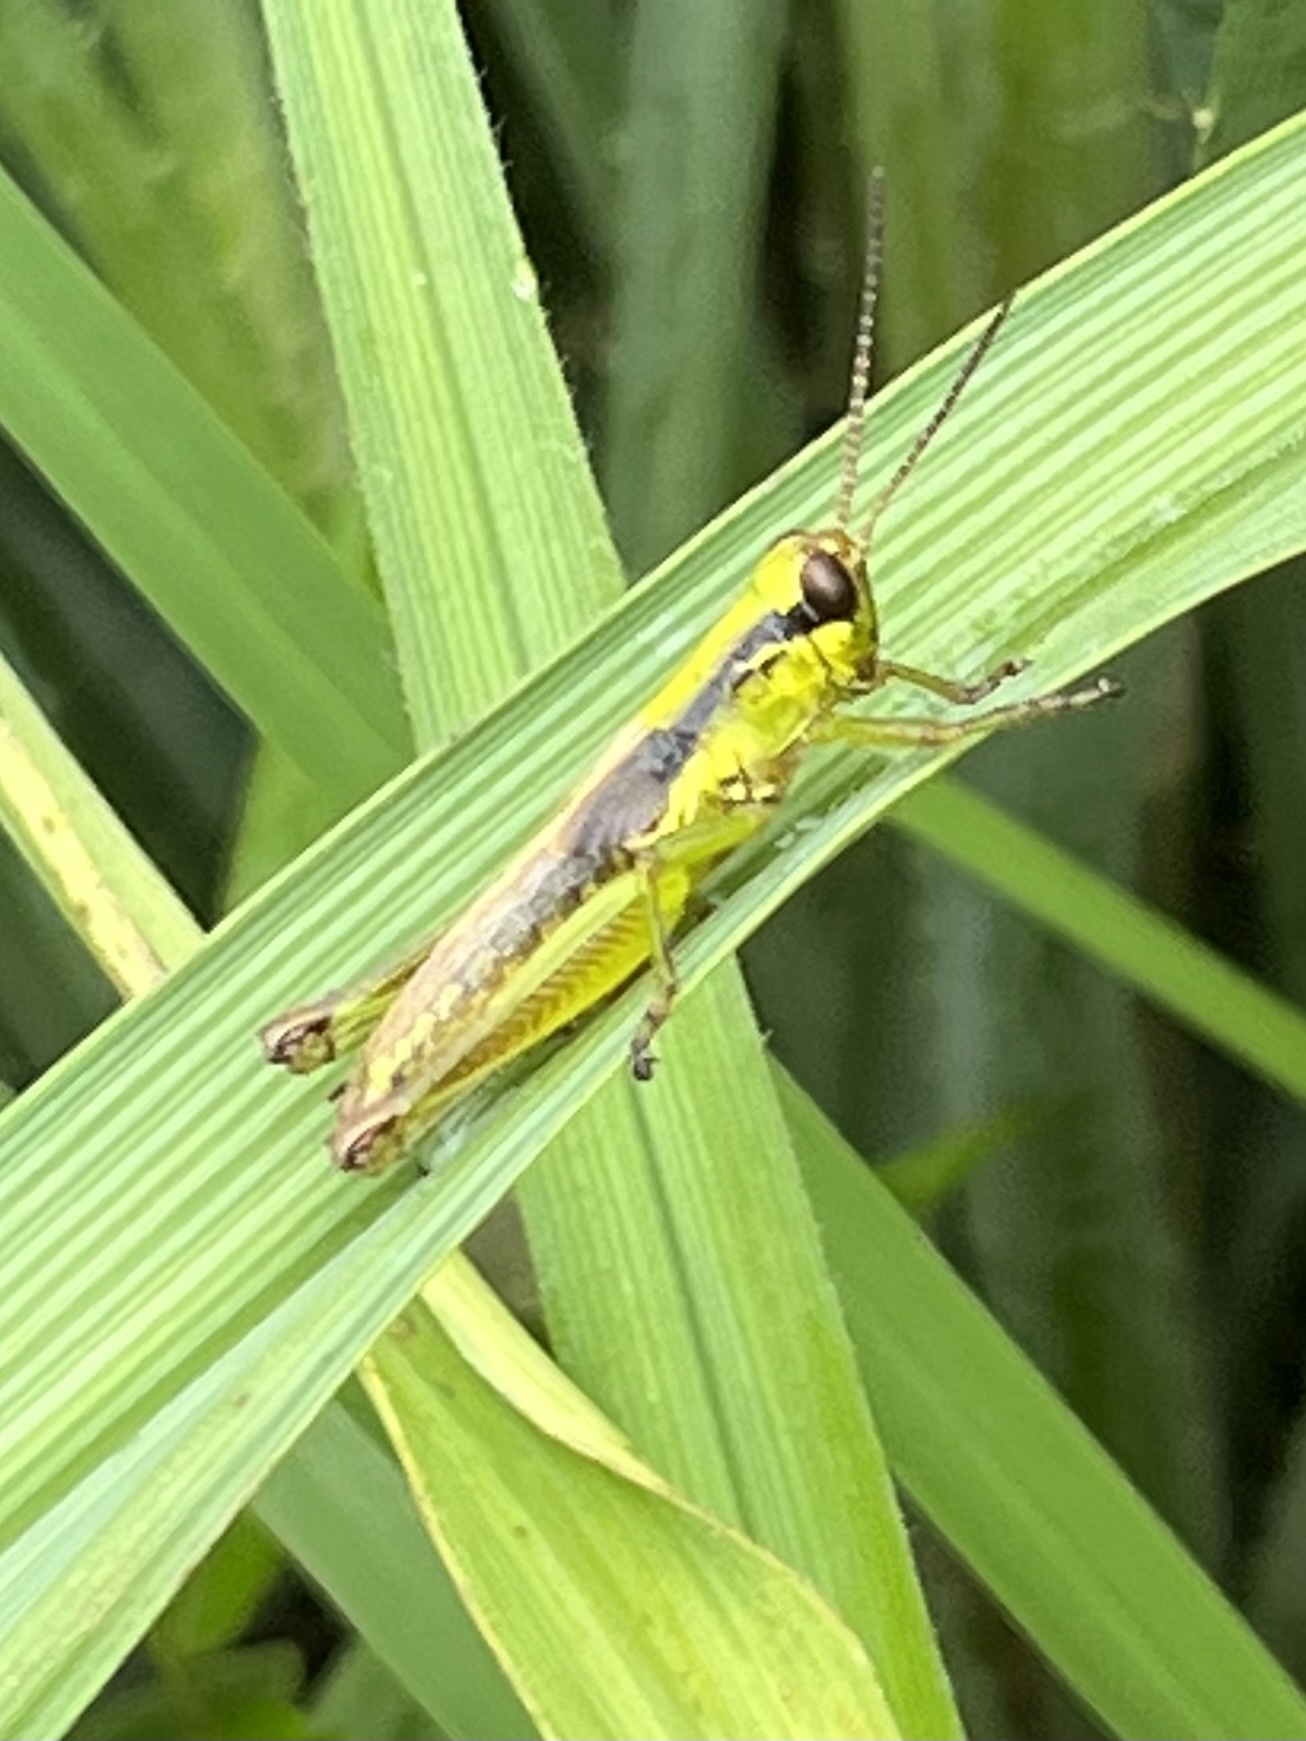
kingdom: Animalia
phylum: Arthropoda
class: Insecta
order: Orthoptera
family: Acrididae
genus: Paroxya
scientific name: Paroxya clavuligera
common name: Olive-green swamp grasshopper
